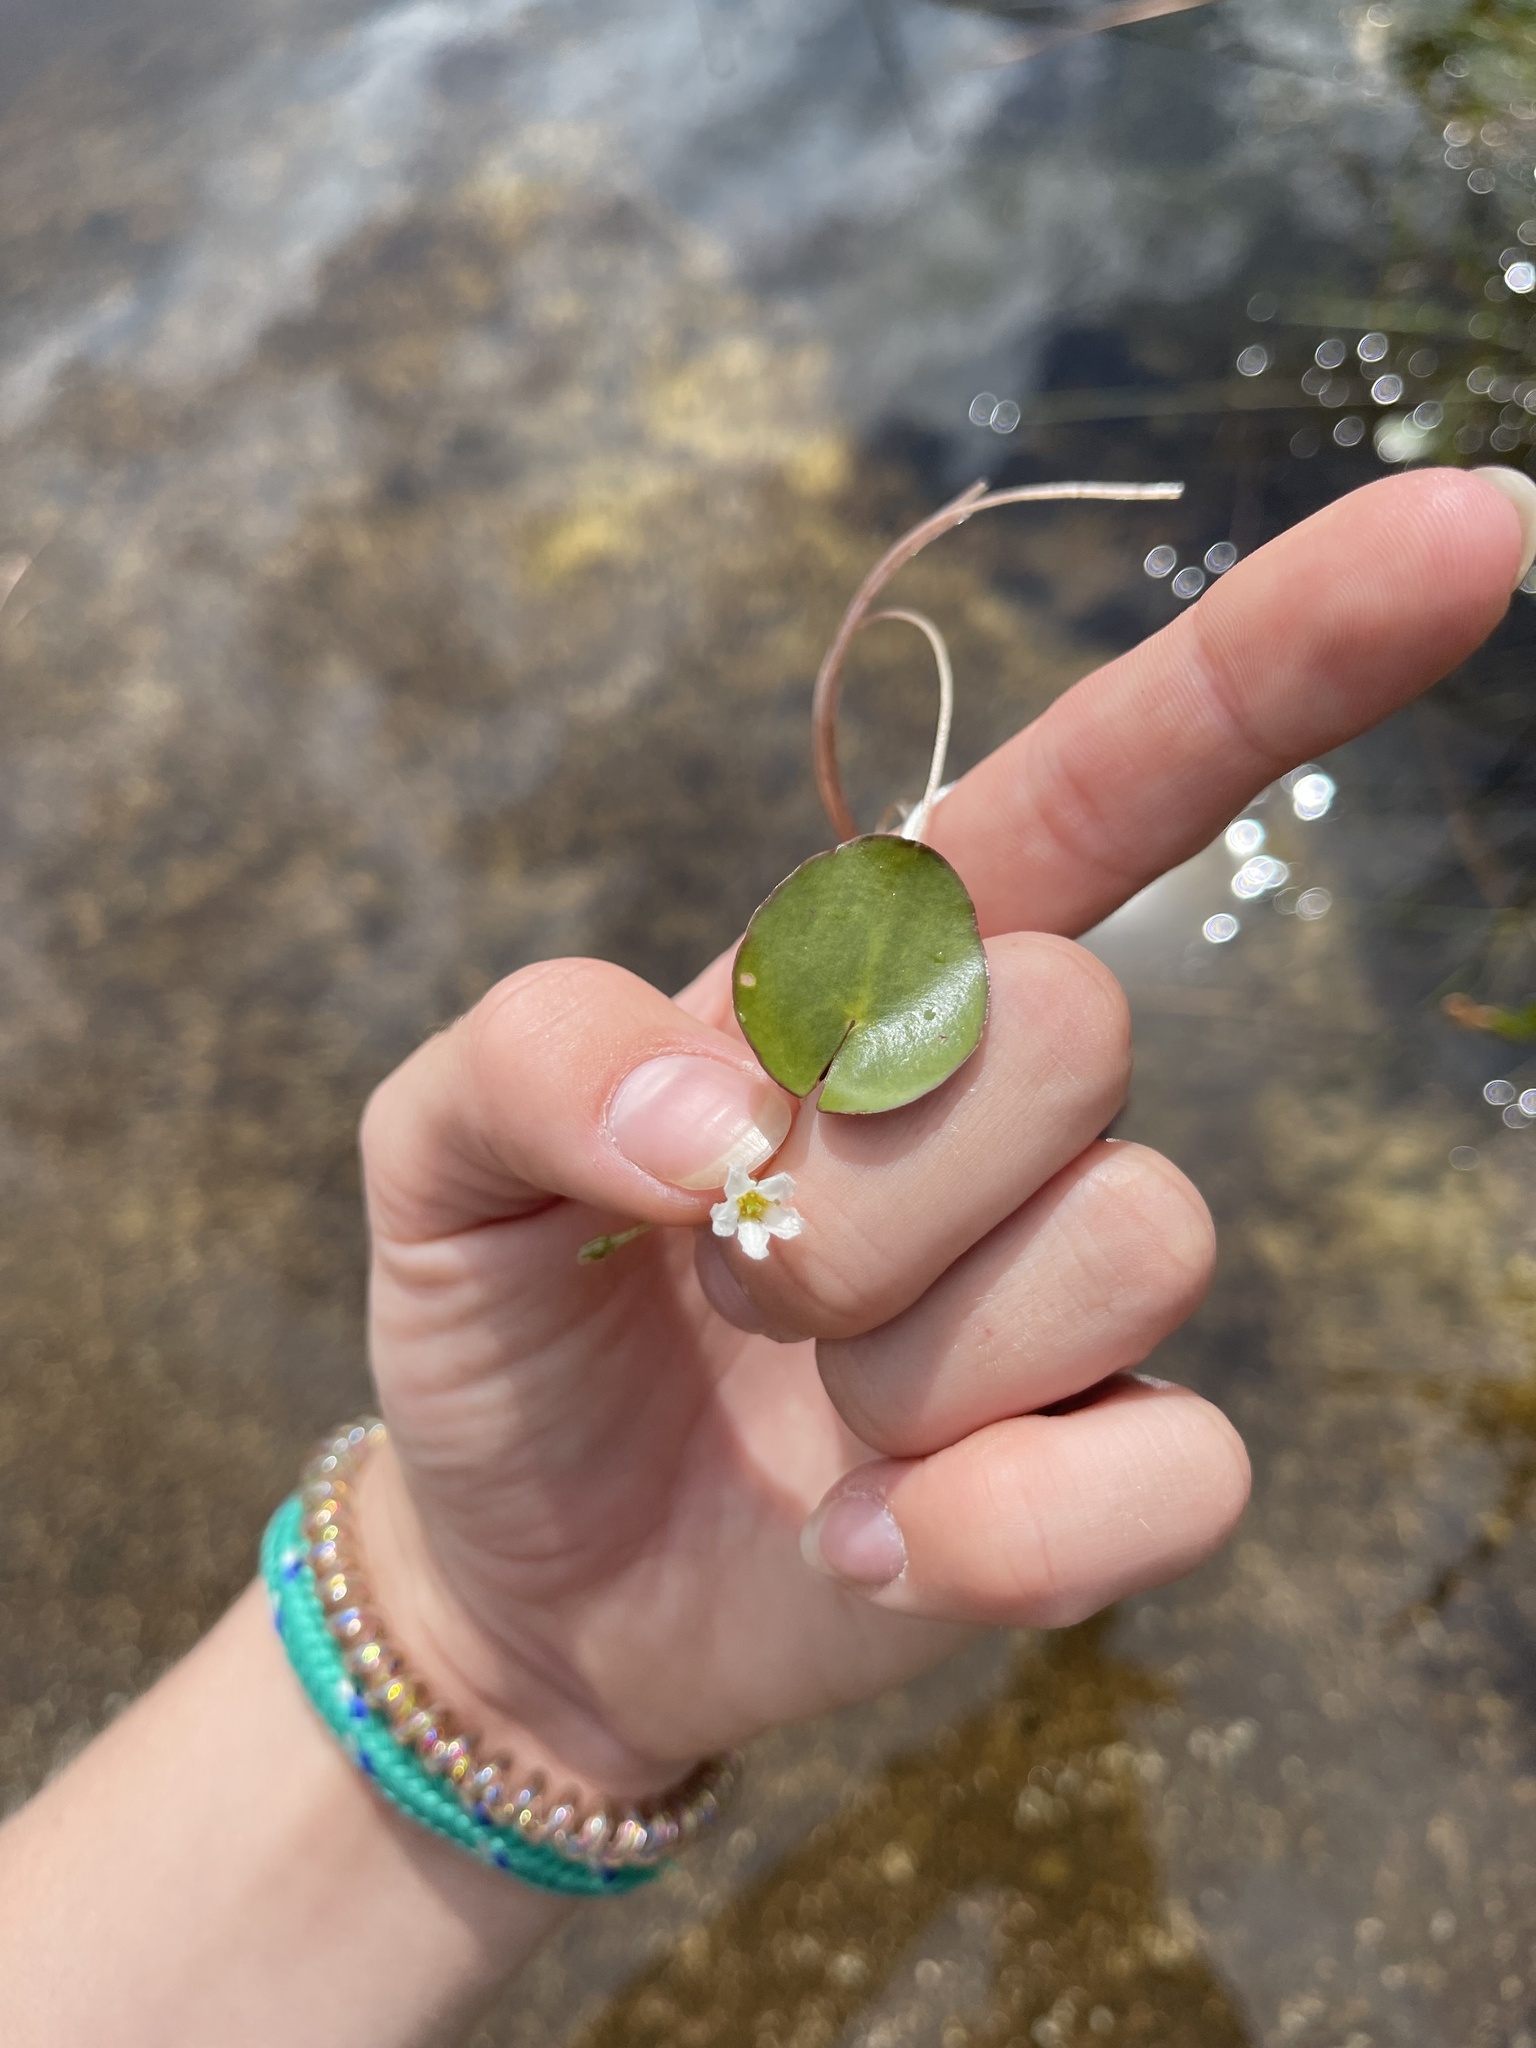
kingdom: Plantae
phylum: Tracheophyta
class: Magnoliopsida
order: Asterales
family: Menyanthaceae
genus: Nymphoides
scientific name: Nymphoides cordata
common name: Eight-angled floatingheart
